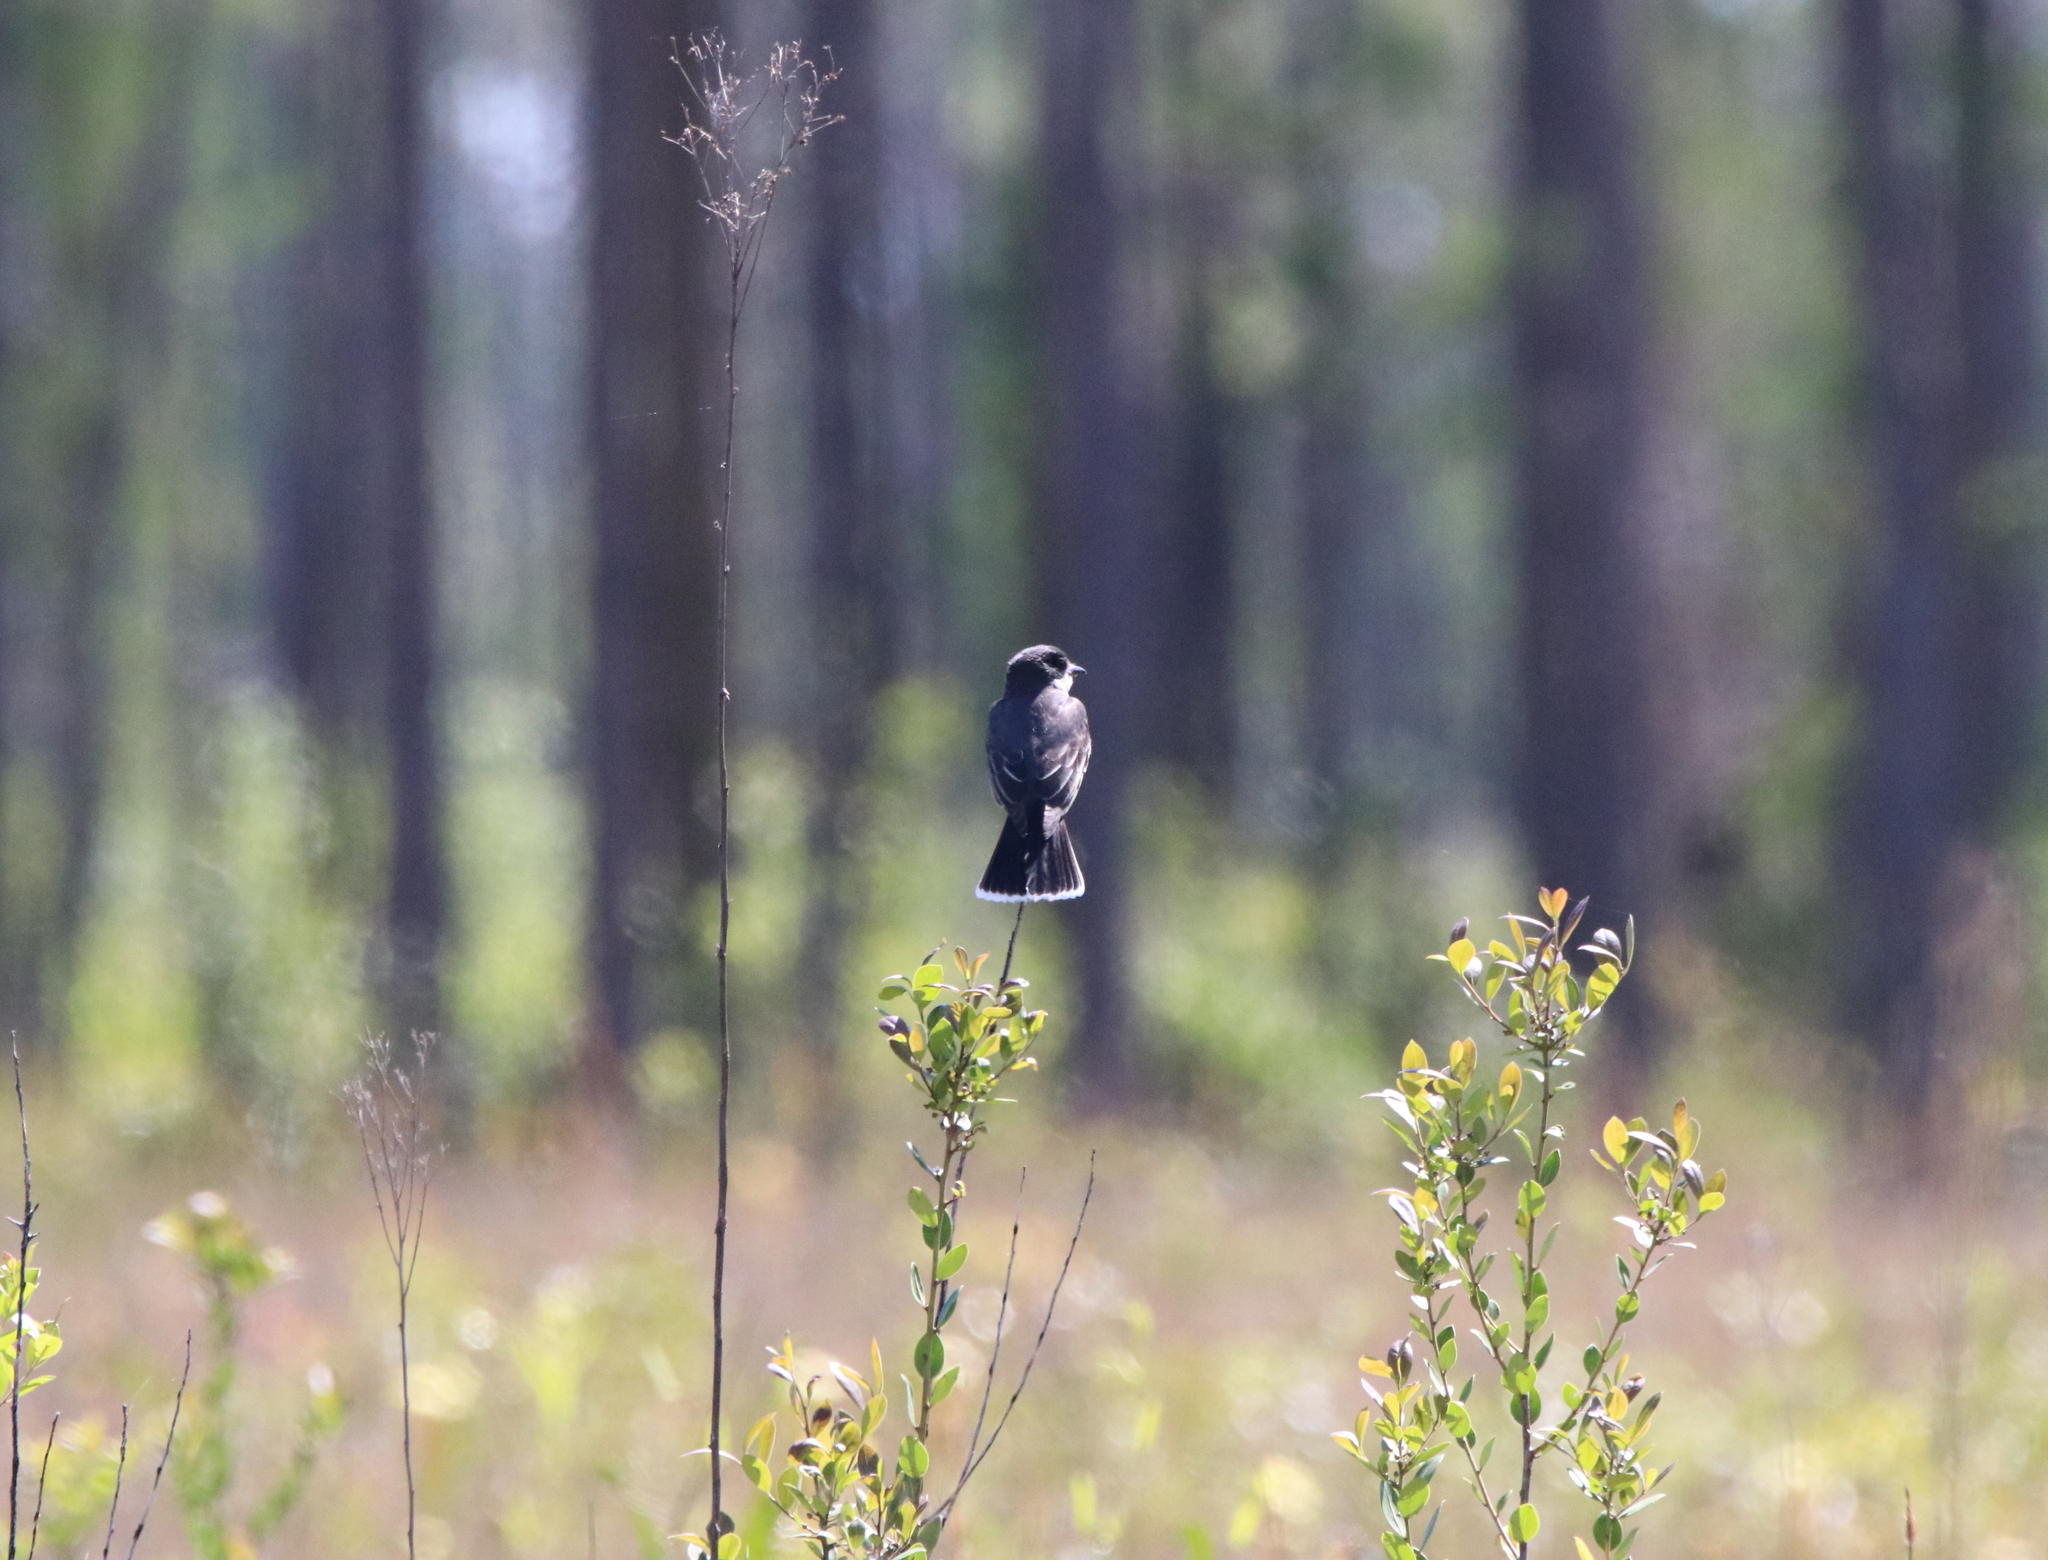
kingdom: Animalia
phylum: Chordata
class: Aves
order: Passeriformes
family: Tyrannidae
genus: Tyrannus
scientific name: Tyrannus tyrannus
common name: Eastern kingbird
